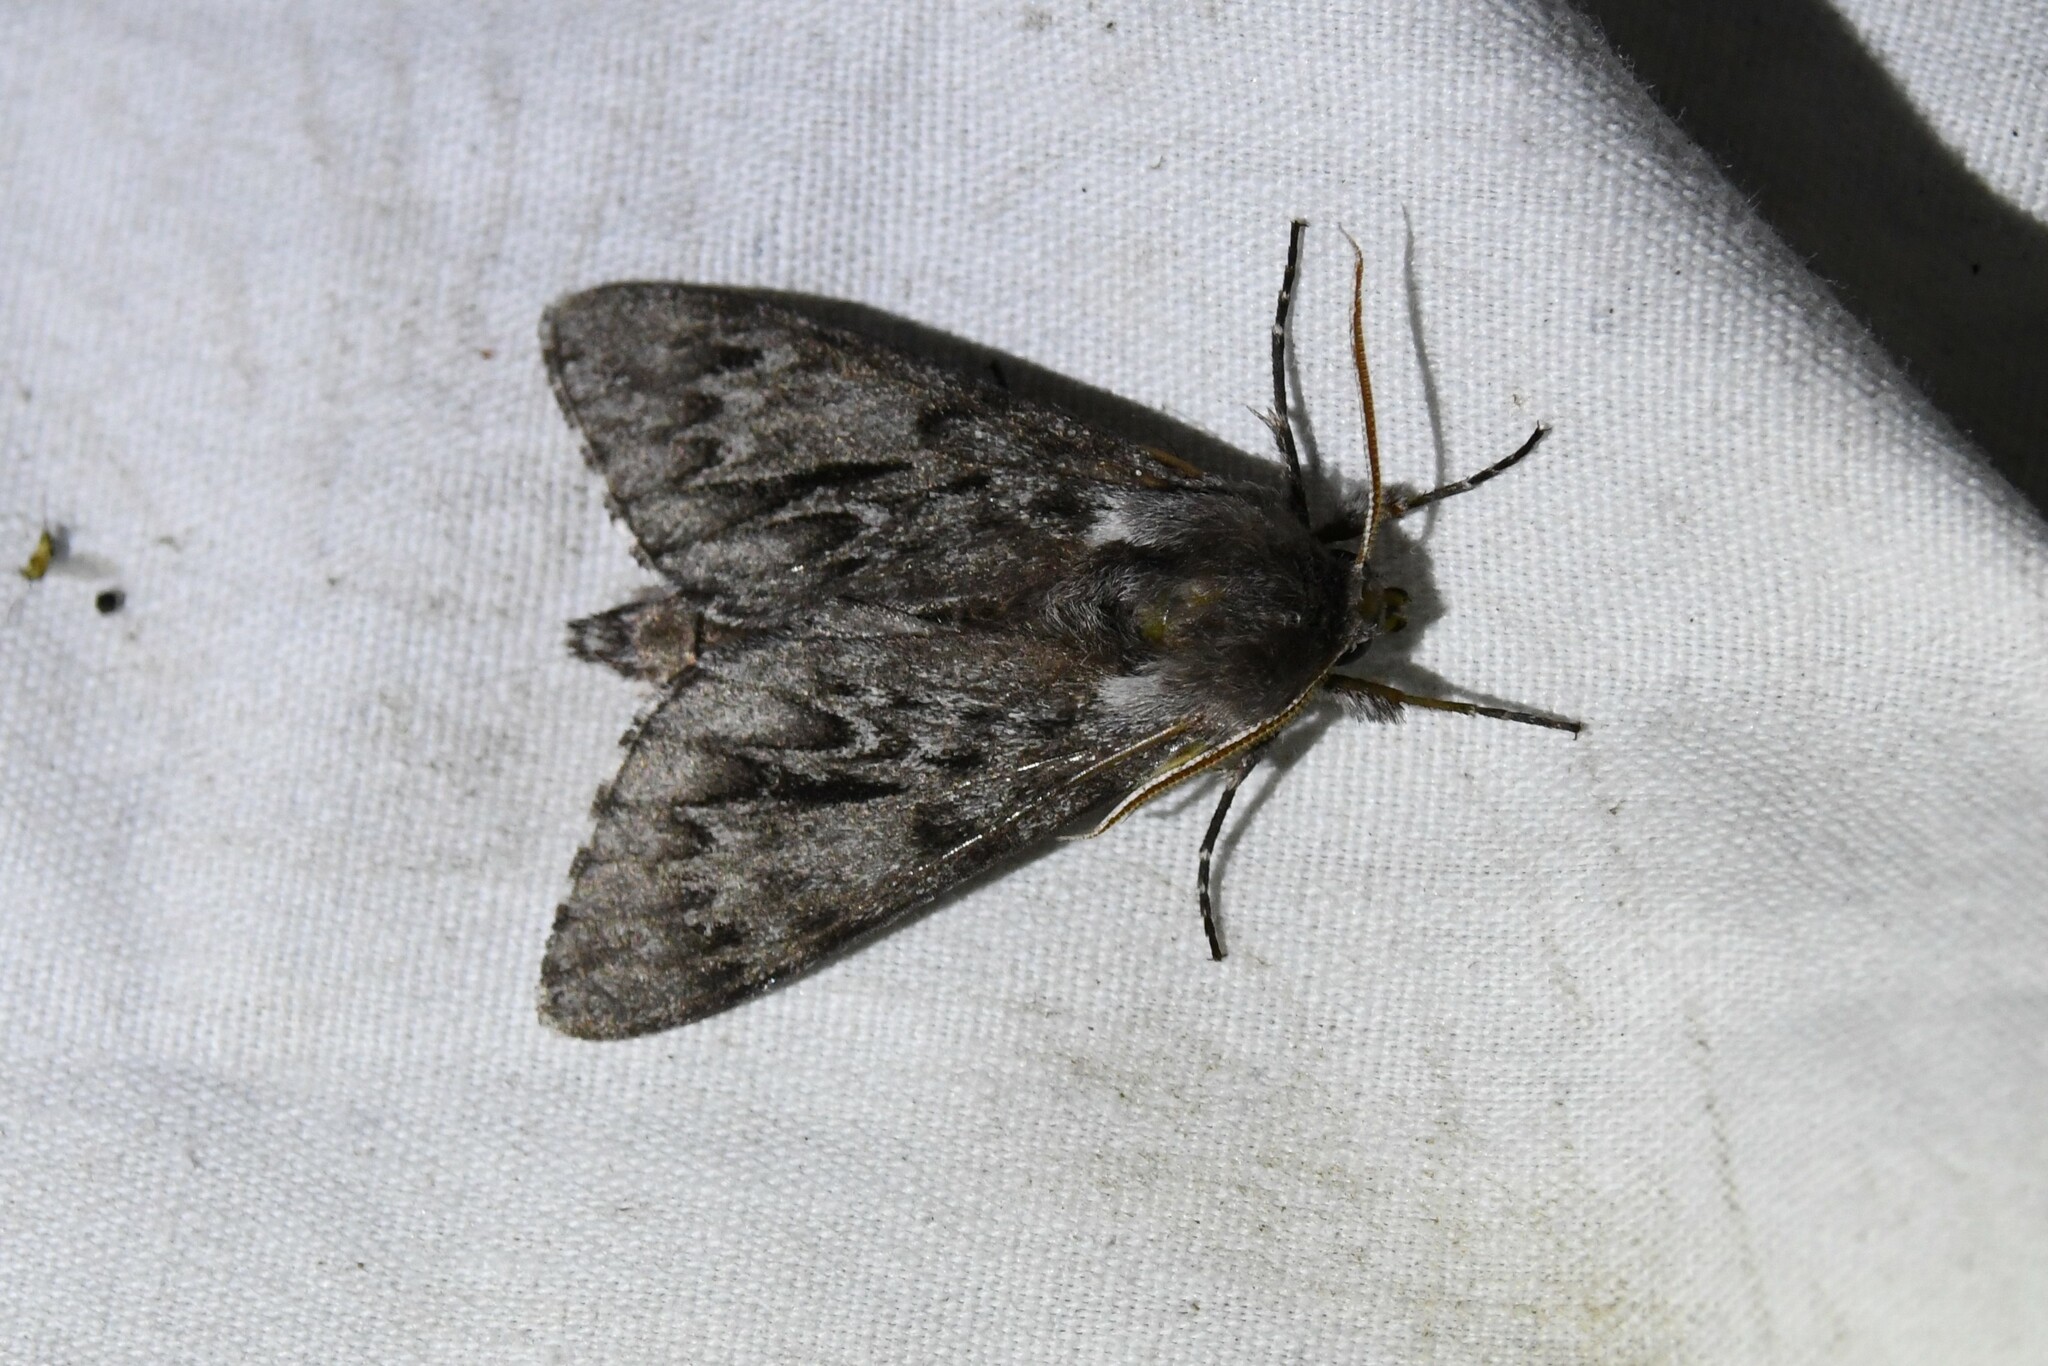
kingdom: Animalia
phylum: Arthropoda
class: Insecta
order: Lepidoptera
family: Sphingidae
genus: Lapara
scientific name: Lapara bombycoides
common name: Northern pine sphinx
